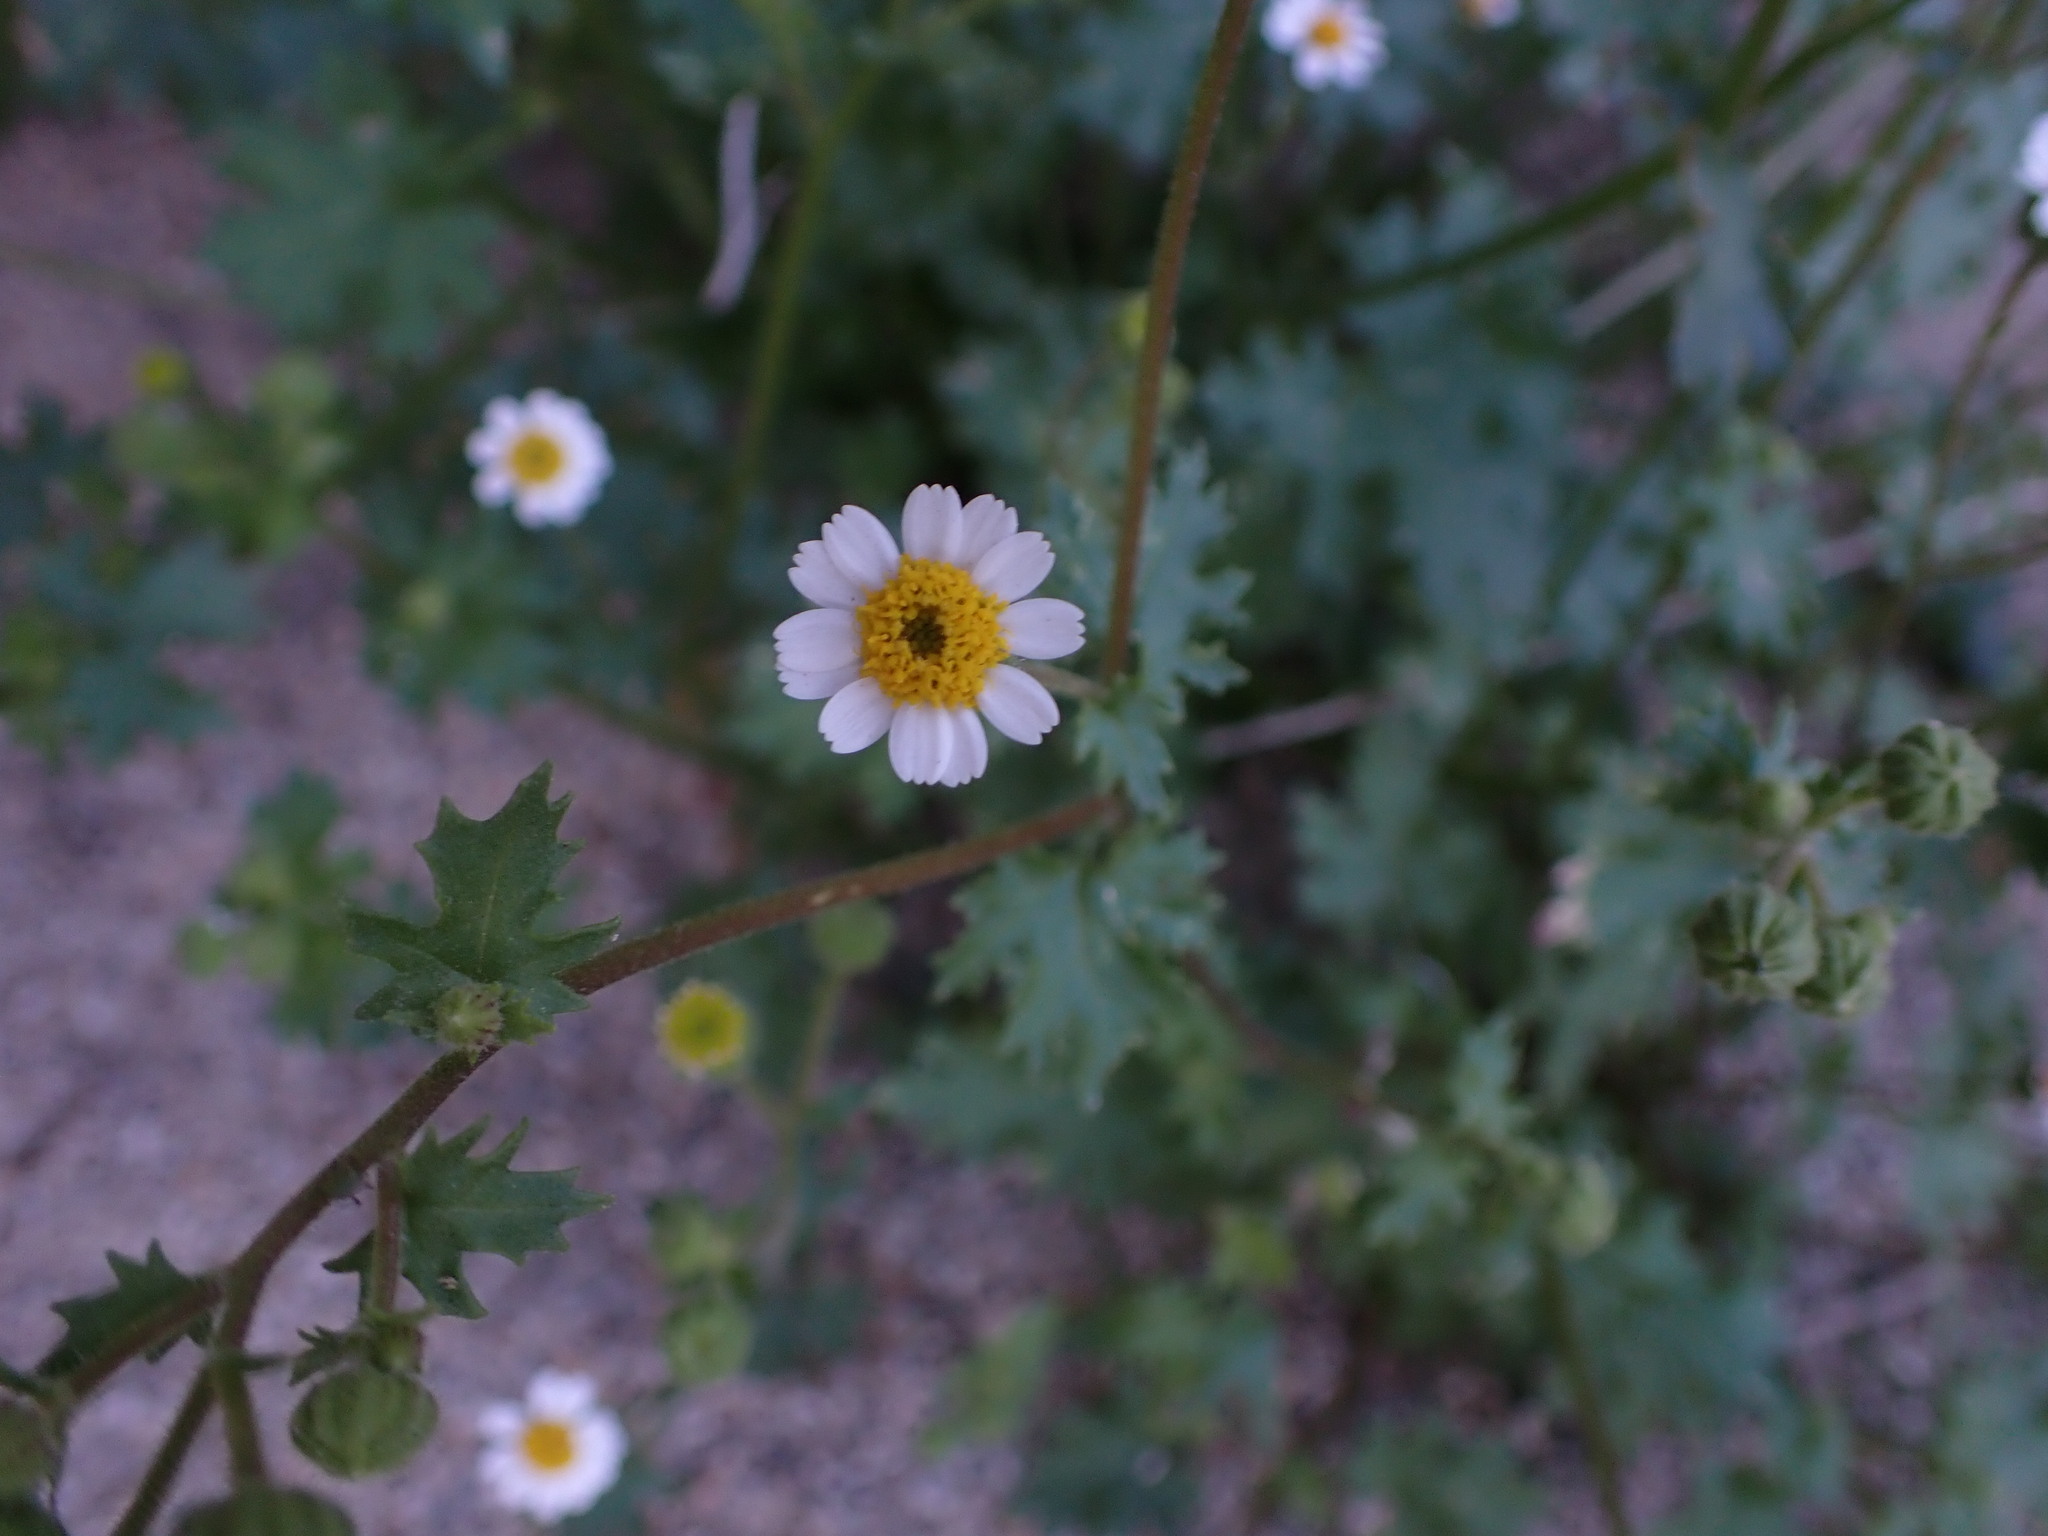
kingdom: Plantae
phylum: Tracheophyta
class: Magnoliopsida
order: Asterales
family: Asteraceae
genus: Laphamia
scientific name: Laphamia emoryi
